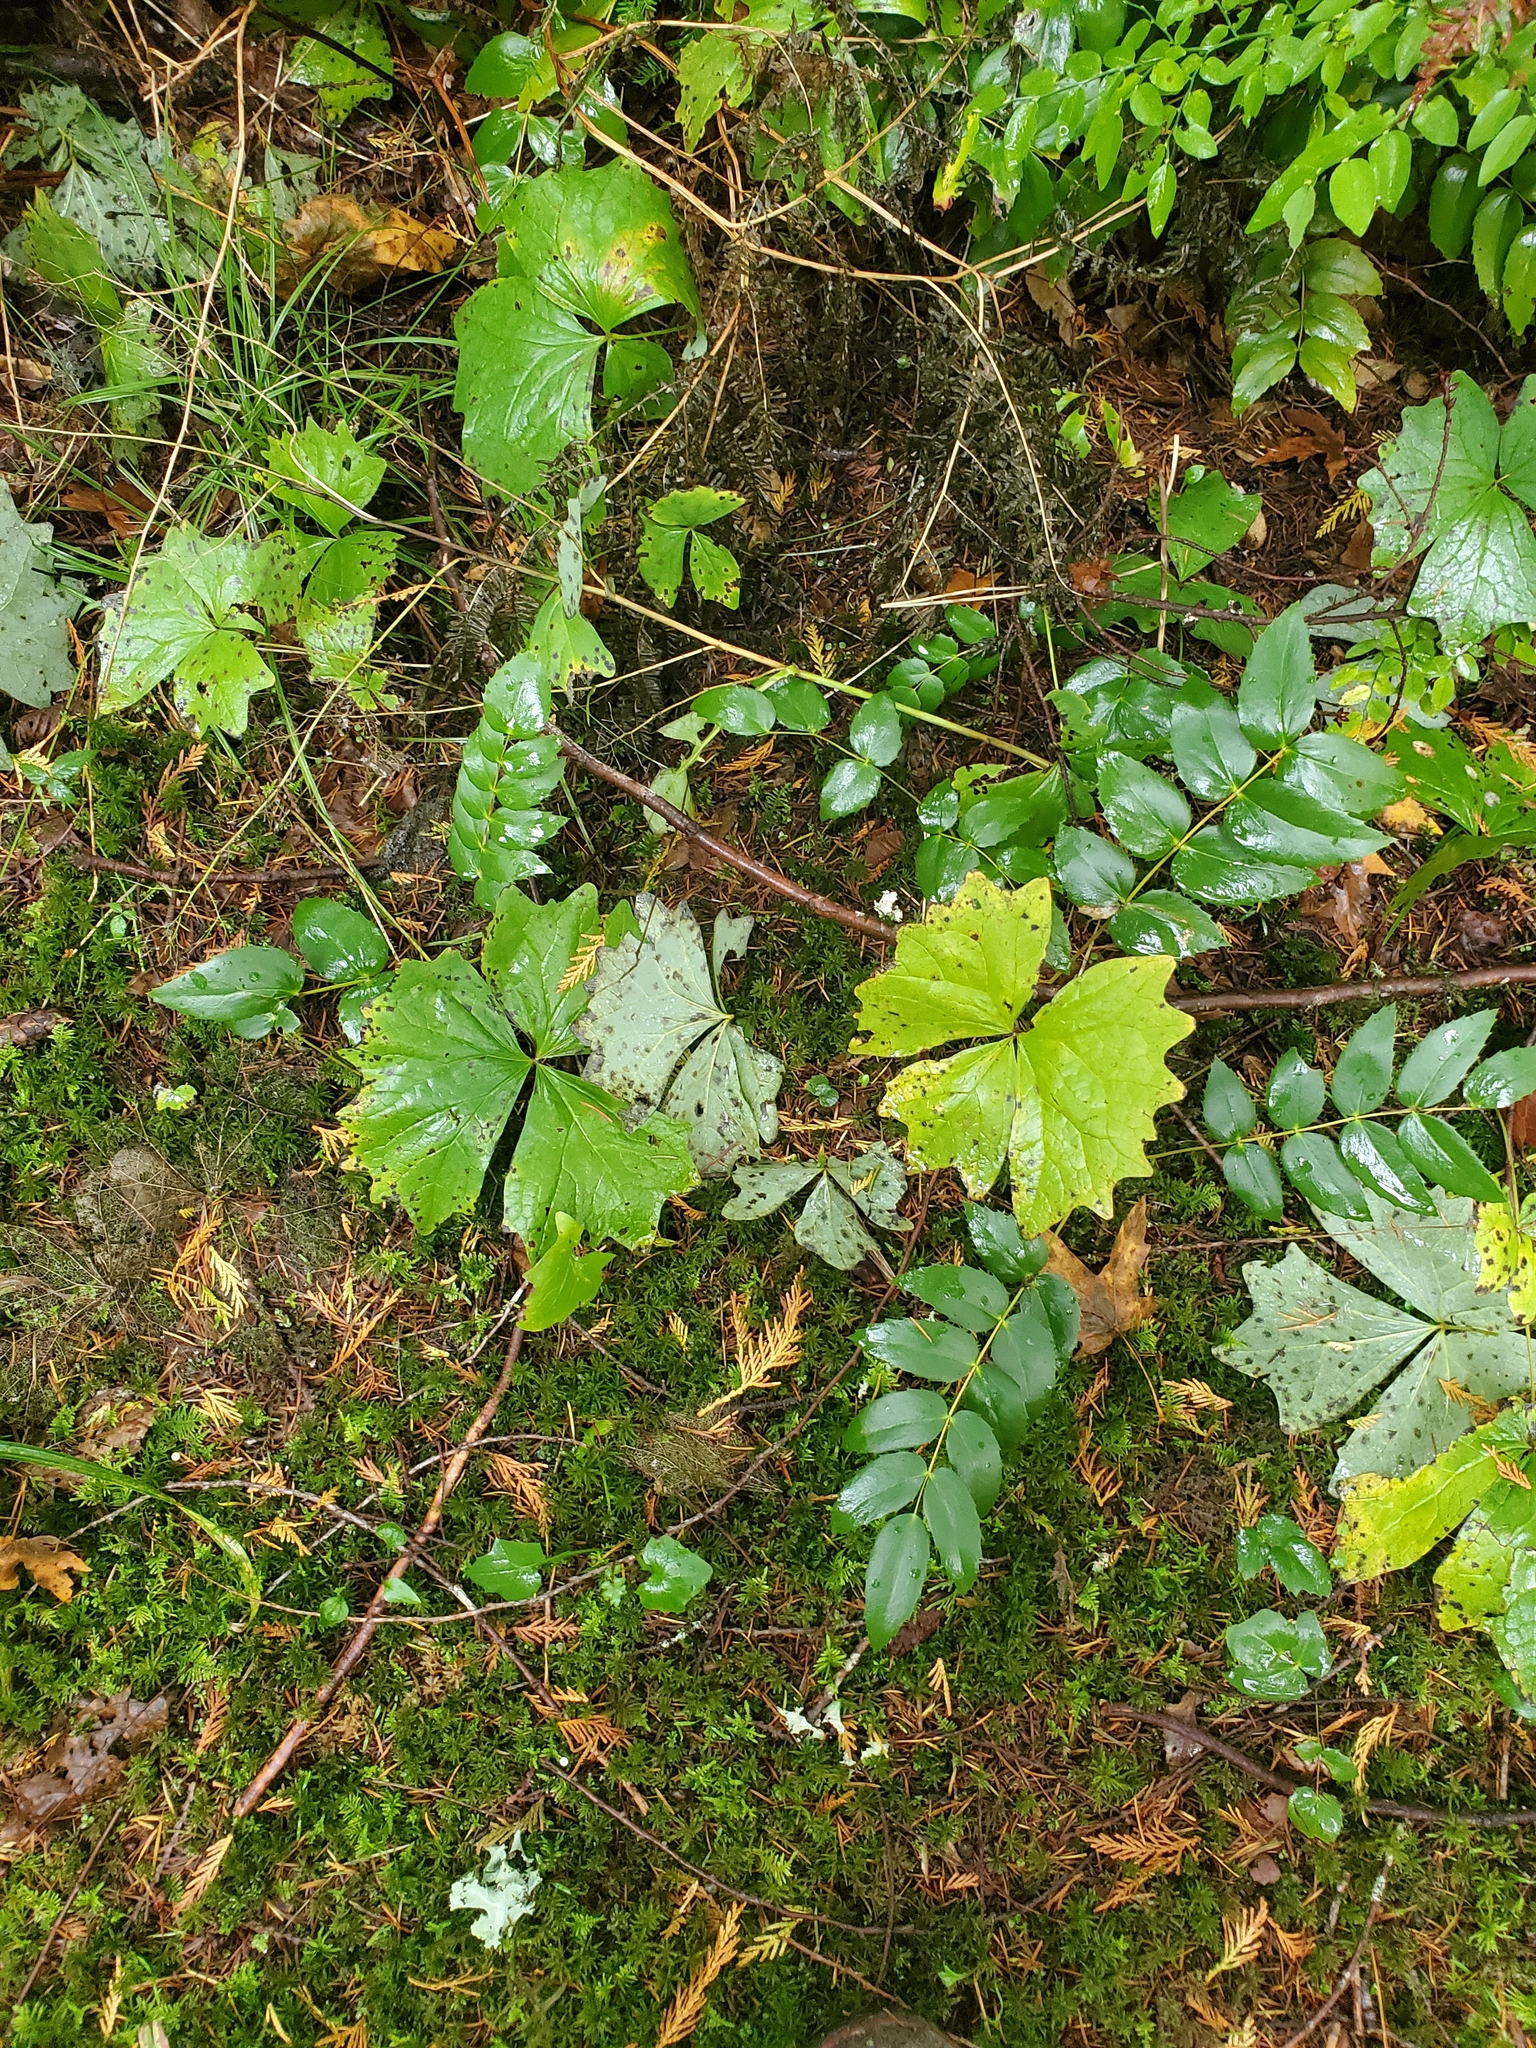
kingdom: Plantae
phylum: Tracheophyta
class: Magnoliopsida
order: Ranunculales
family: Berberidaceae
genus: Achlys
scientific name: Achlys triphylla
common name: Vanilla-leaf
